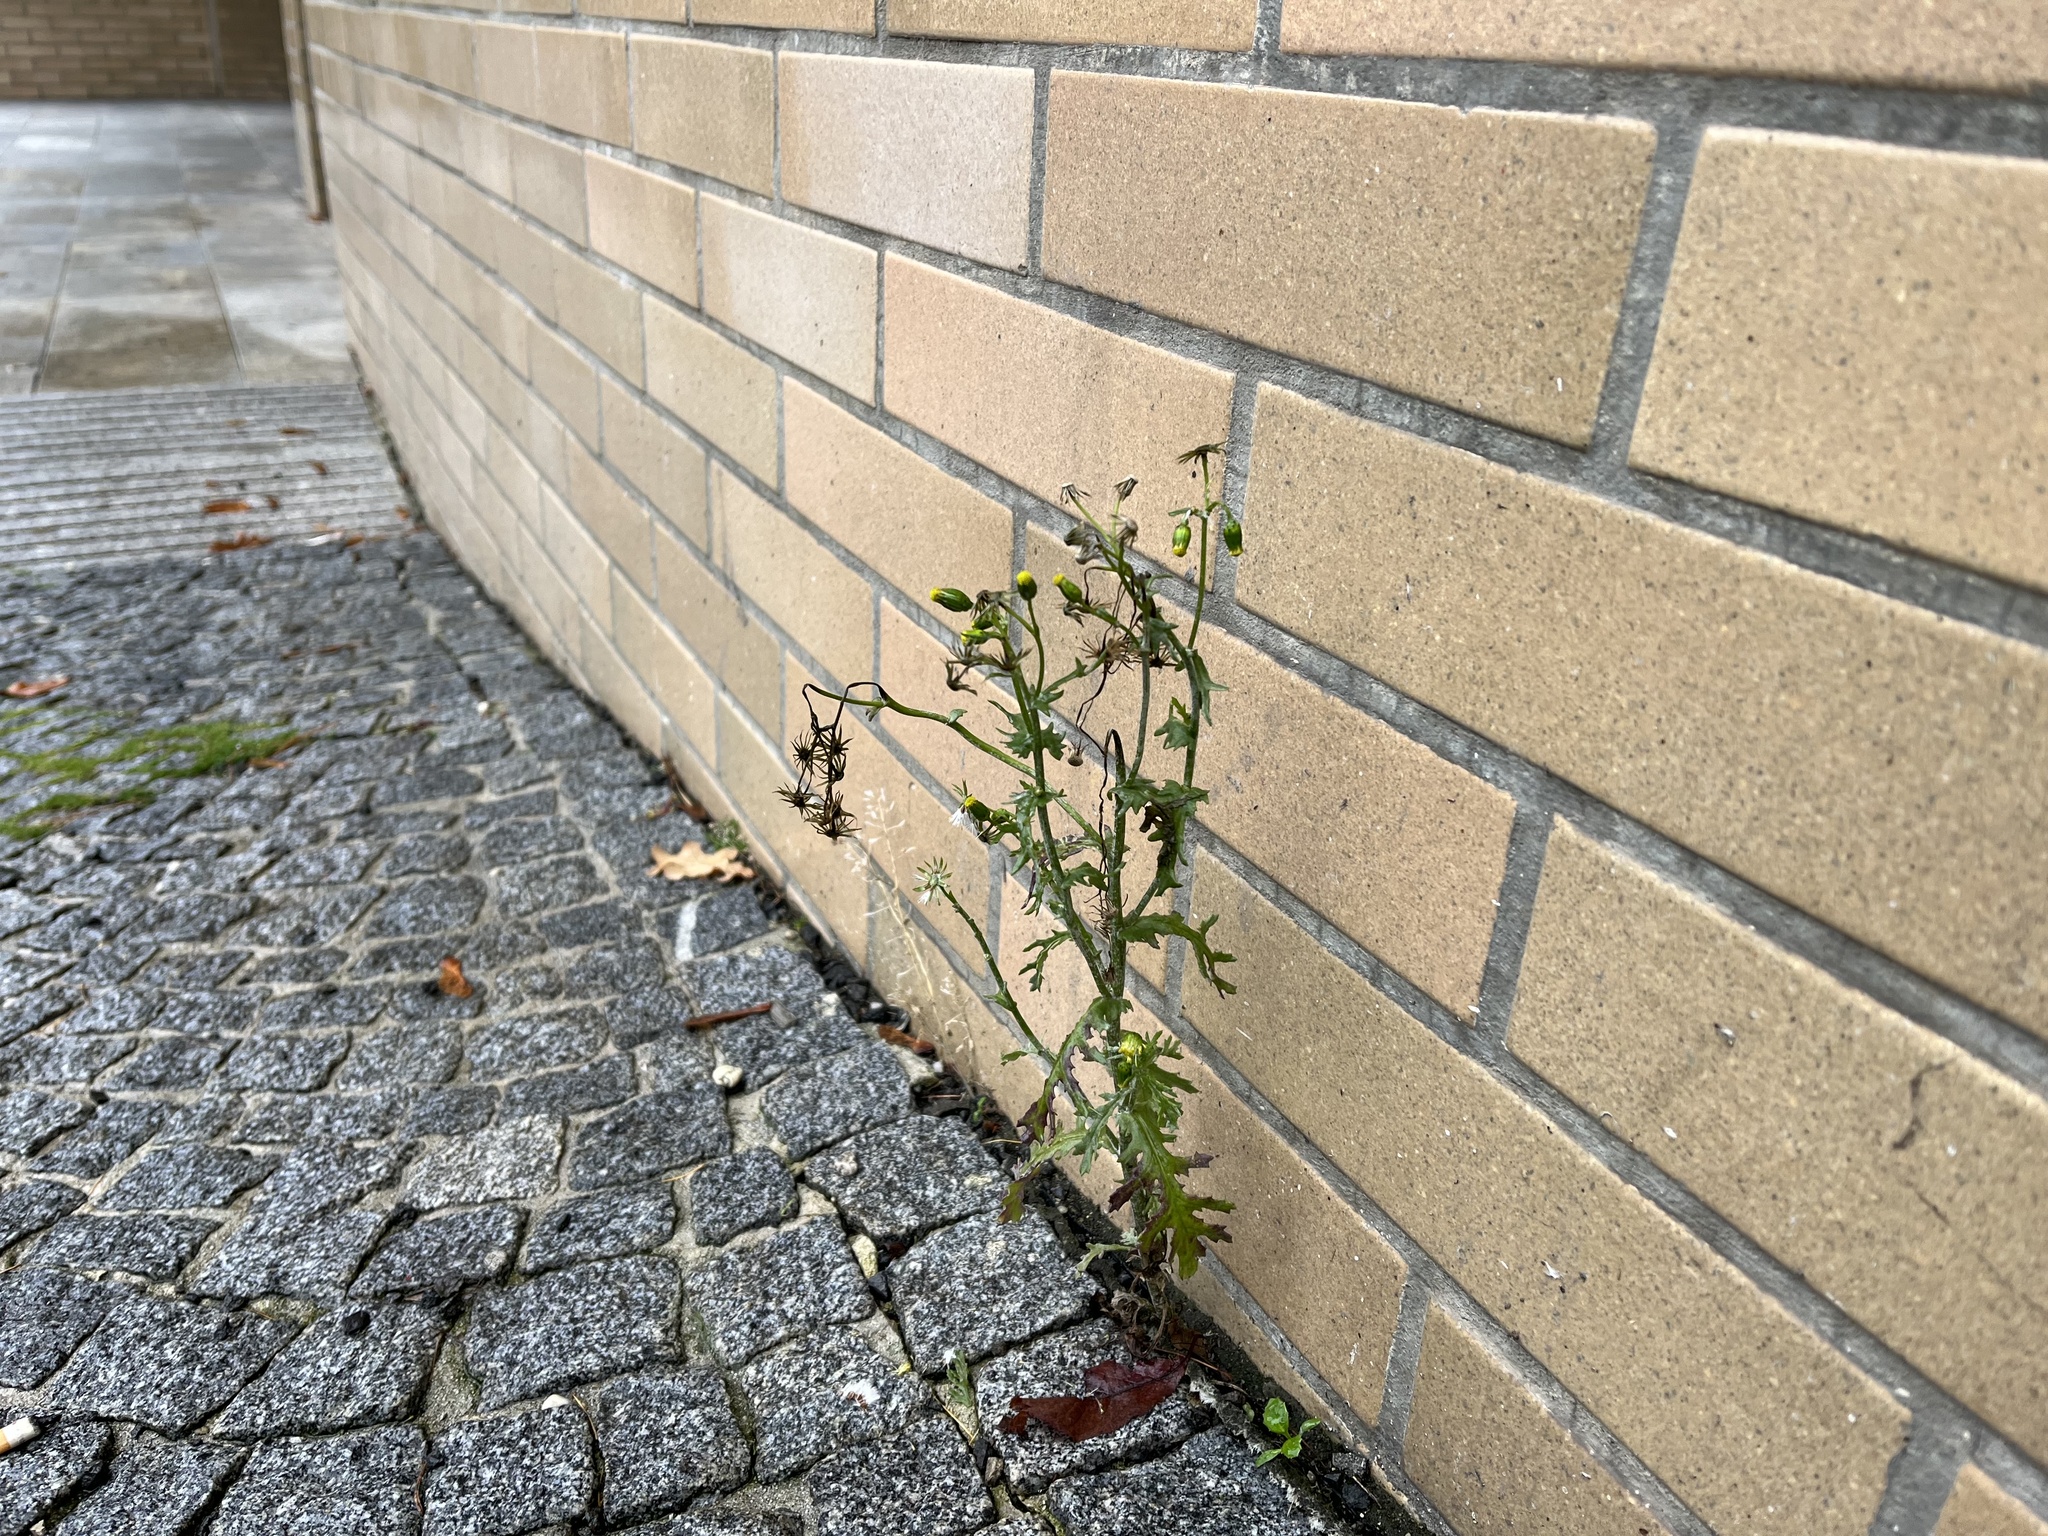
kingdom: Plantae
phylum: Tracheophyta
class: Magnoliopsida
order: Asterales
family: Asteraceae
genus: Senecio
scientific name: Senecio vulgaris
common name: Old-man-in-the-spring
